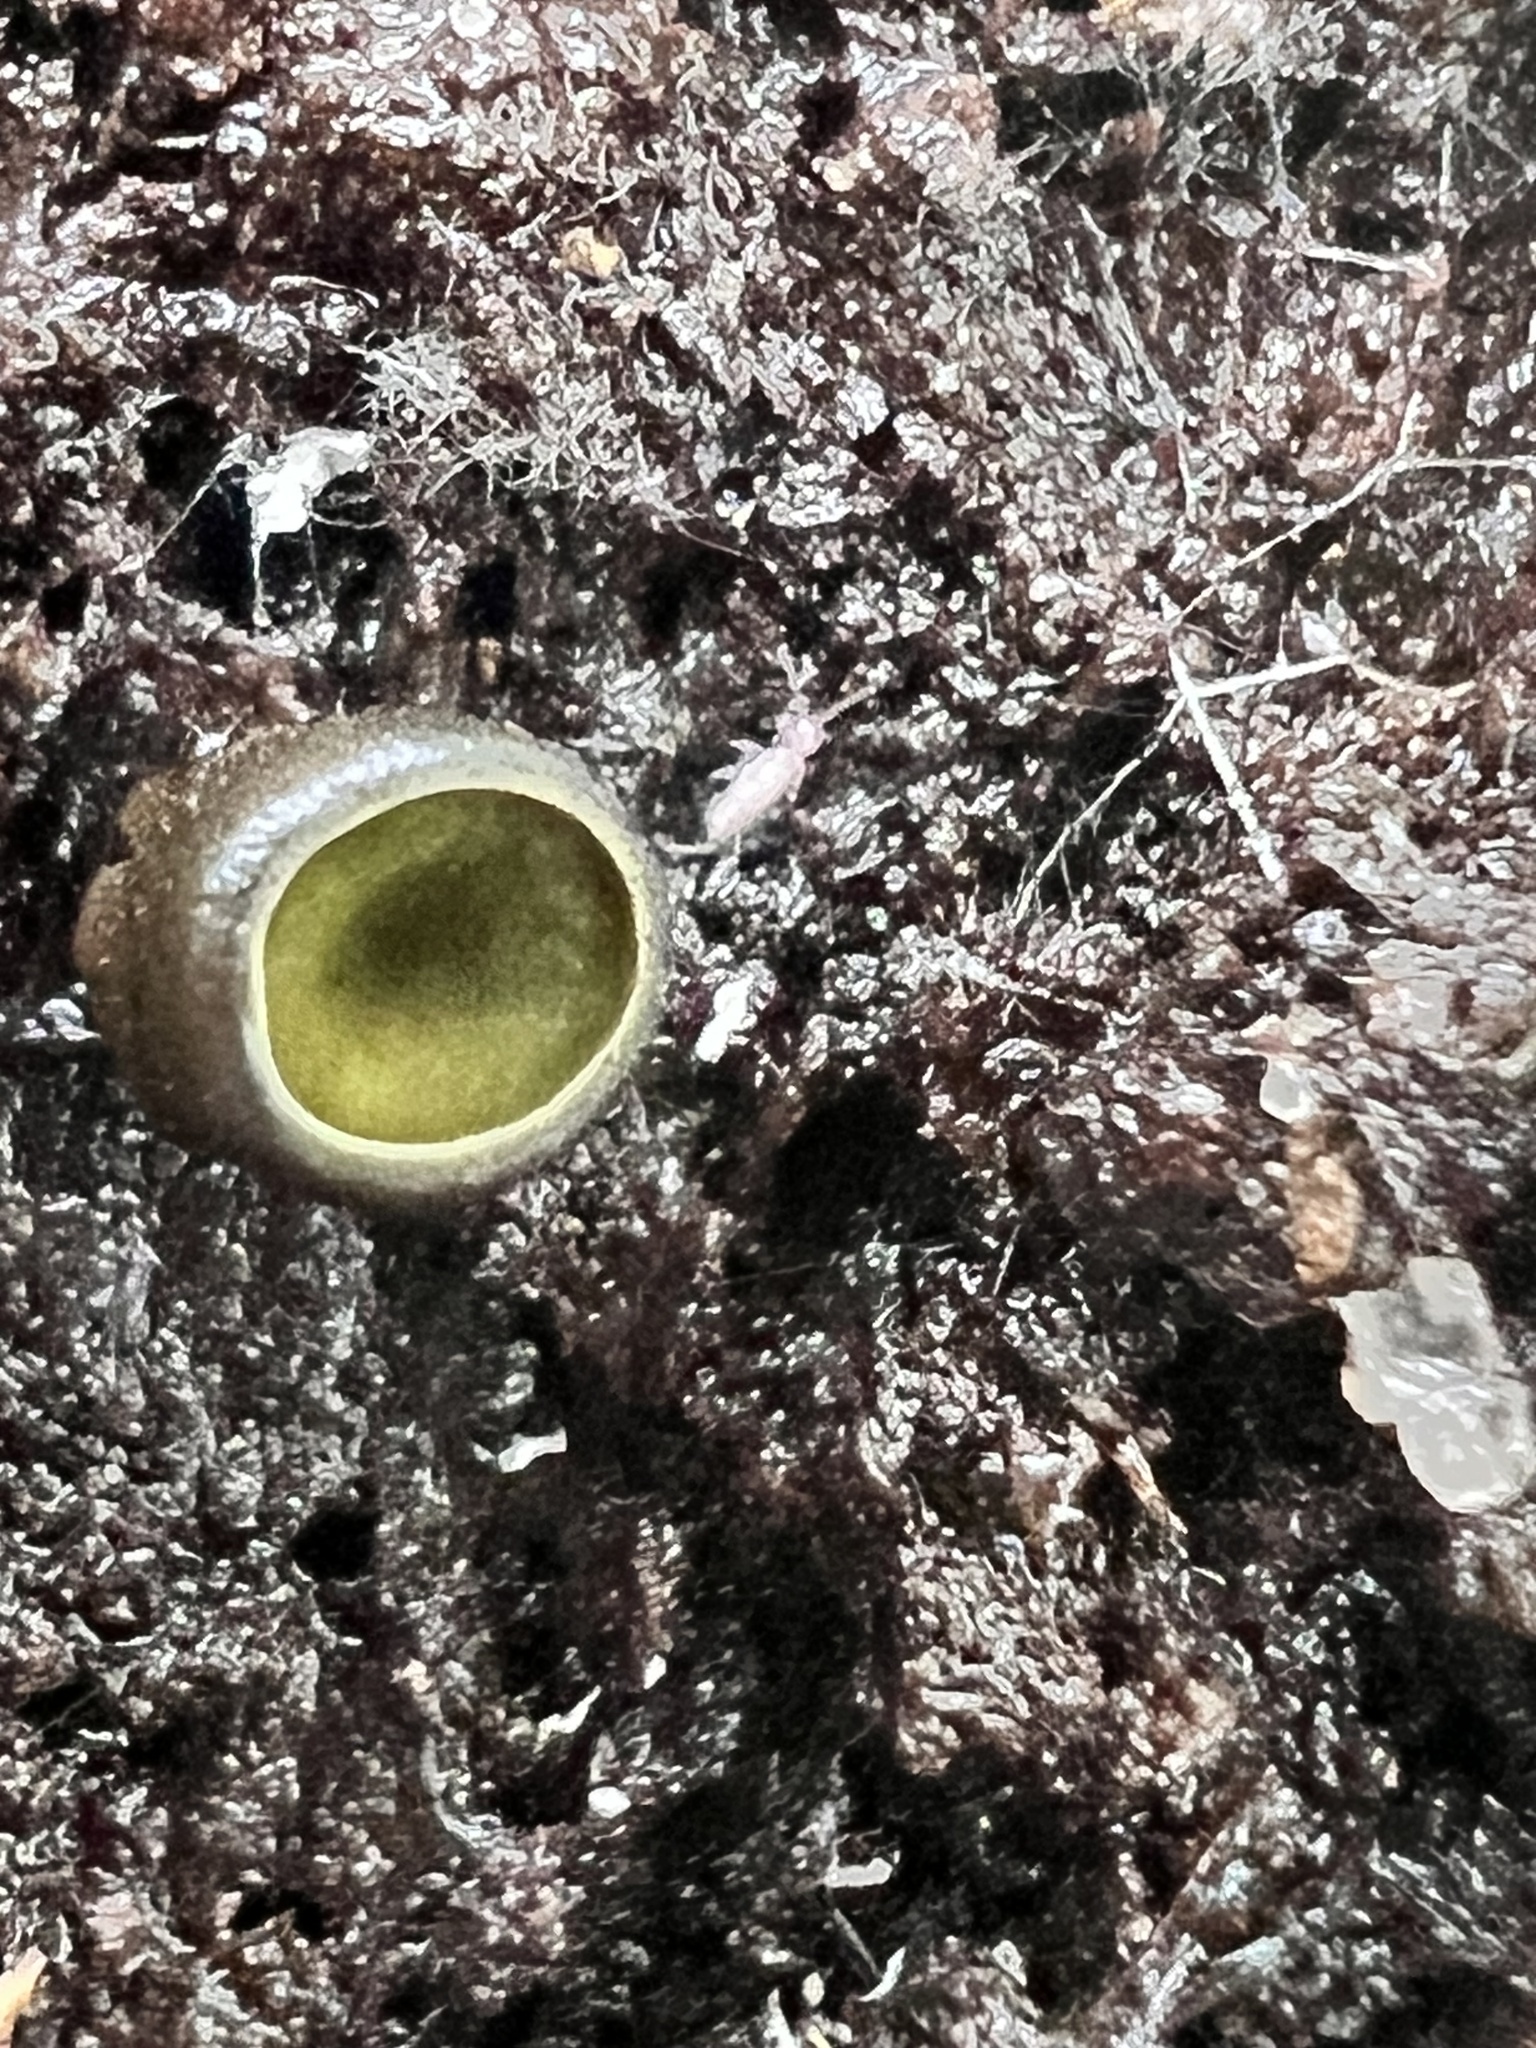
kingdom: Fungi
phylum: Ascomycota
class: Leotiomycetes
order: Helotiales
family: Cenangiaceae
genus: Chlorencoelia
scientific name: Chlorencoelia versiformis
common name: Flea's ear
